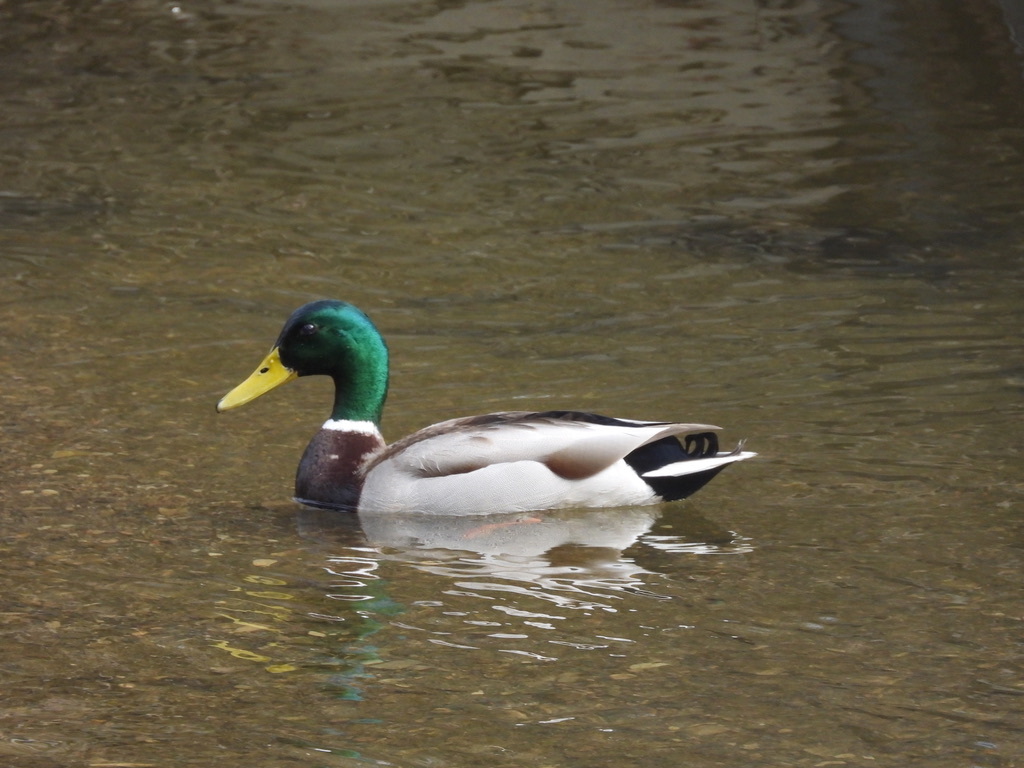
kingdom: Animalia
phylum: Chordata
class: Aves
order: Anseriformes
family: Anatidae
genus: Anas
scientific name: Anas platyrhynchos
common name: Mallard
